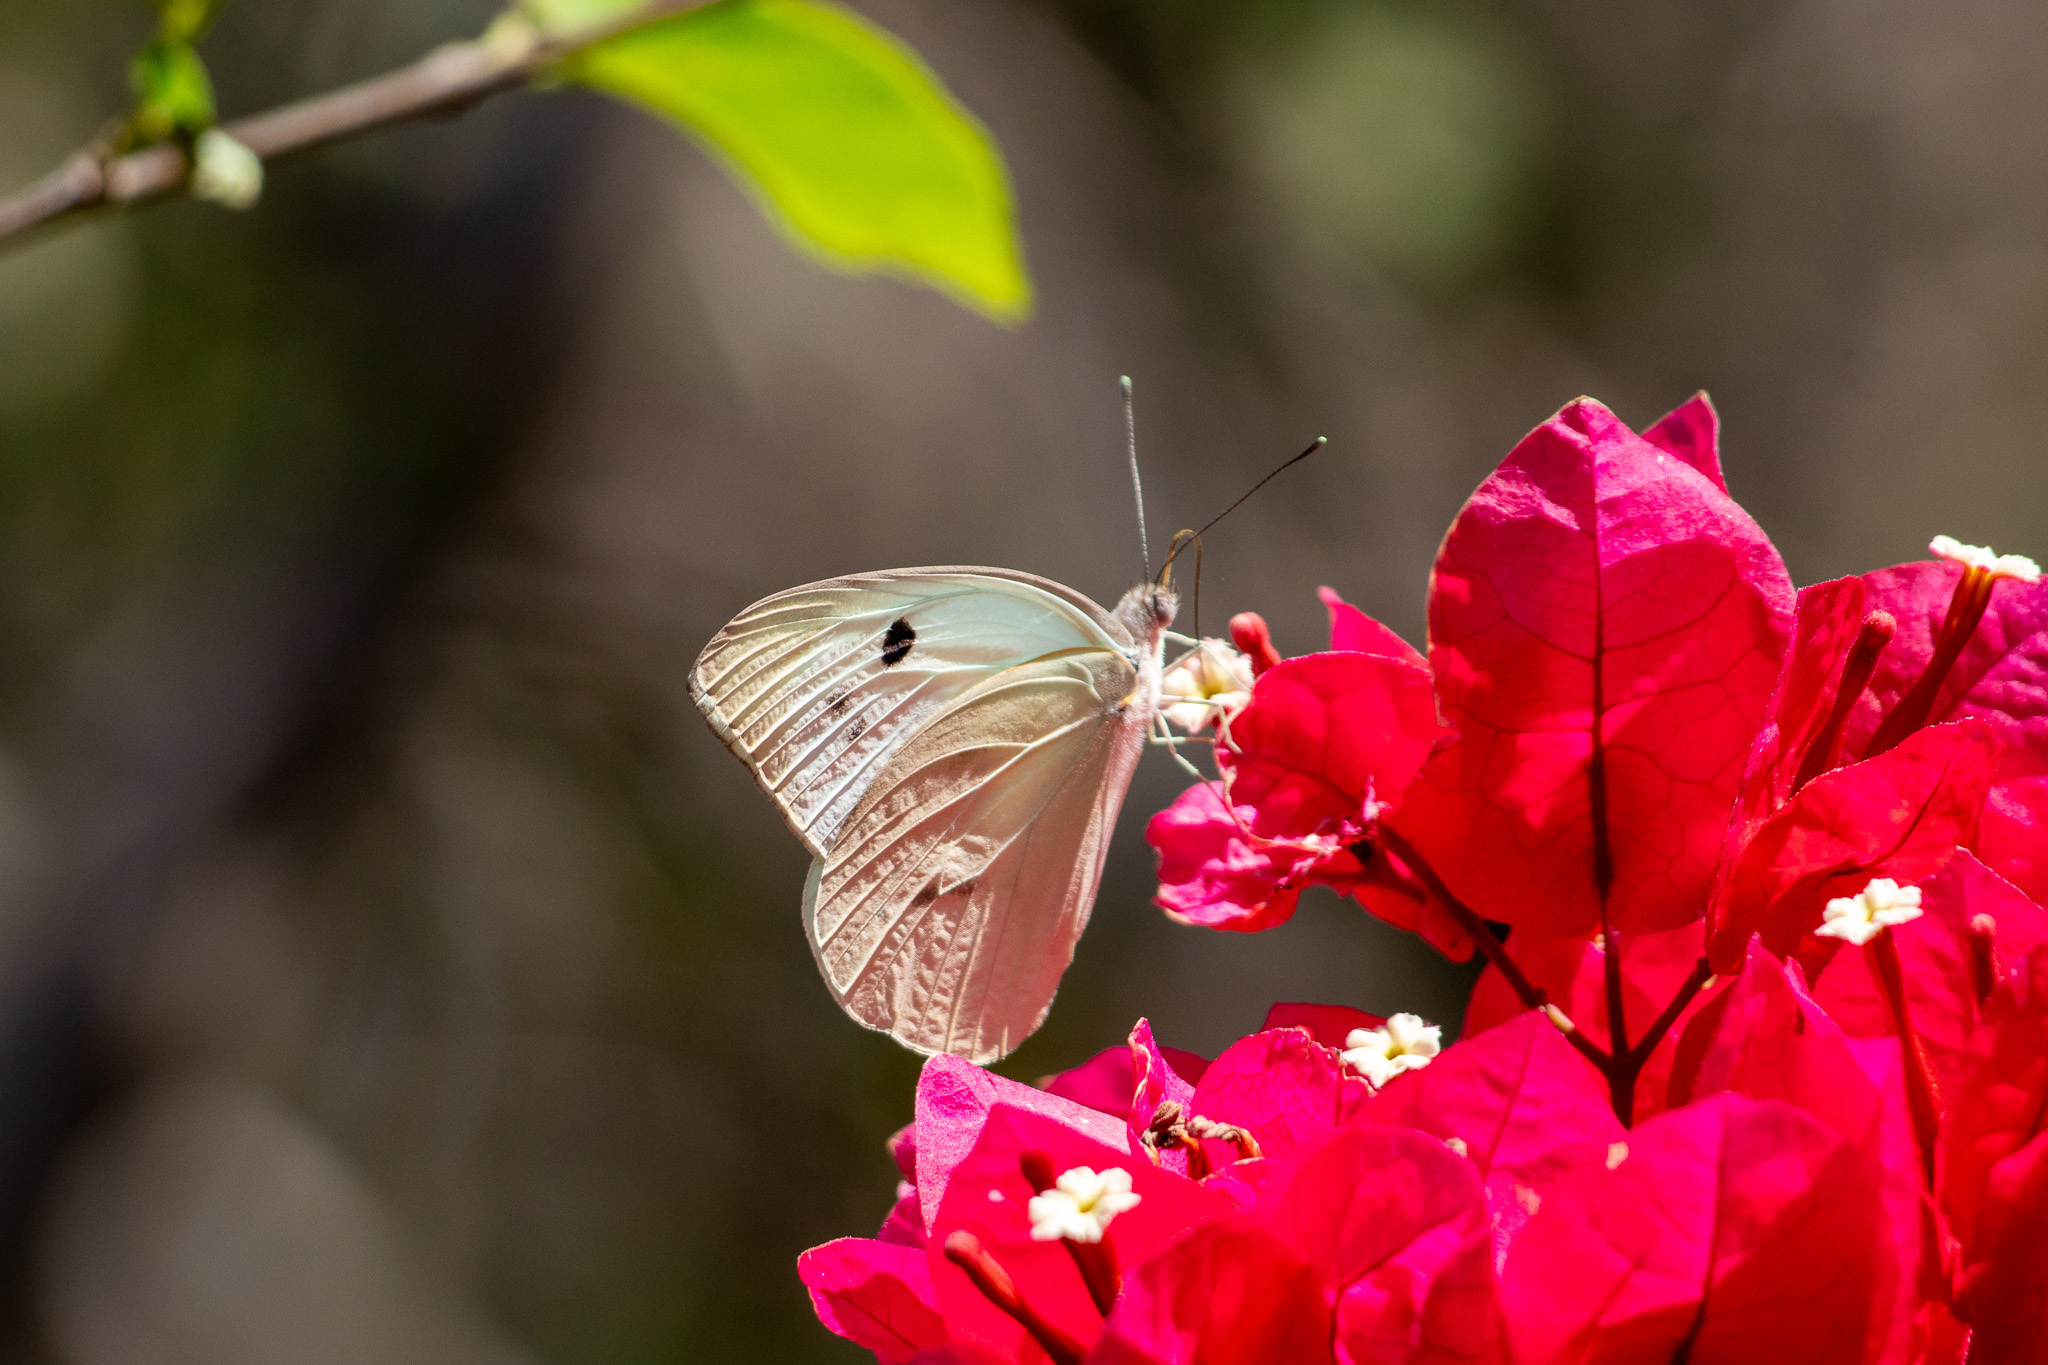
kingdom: Animalia
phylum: Arthropoda
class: Insecta
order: Lepidoptera
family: Pieridae
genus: Ganyra
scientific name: Ganyra josephina
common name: Giant white
